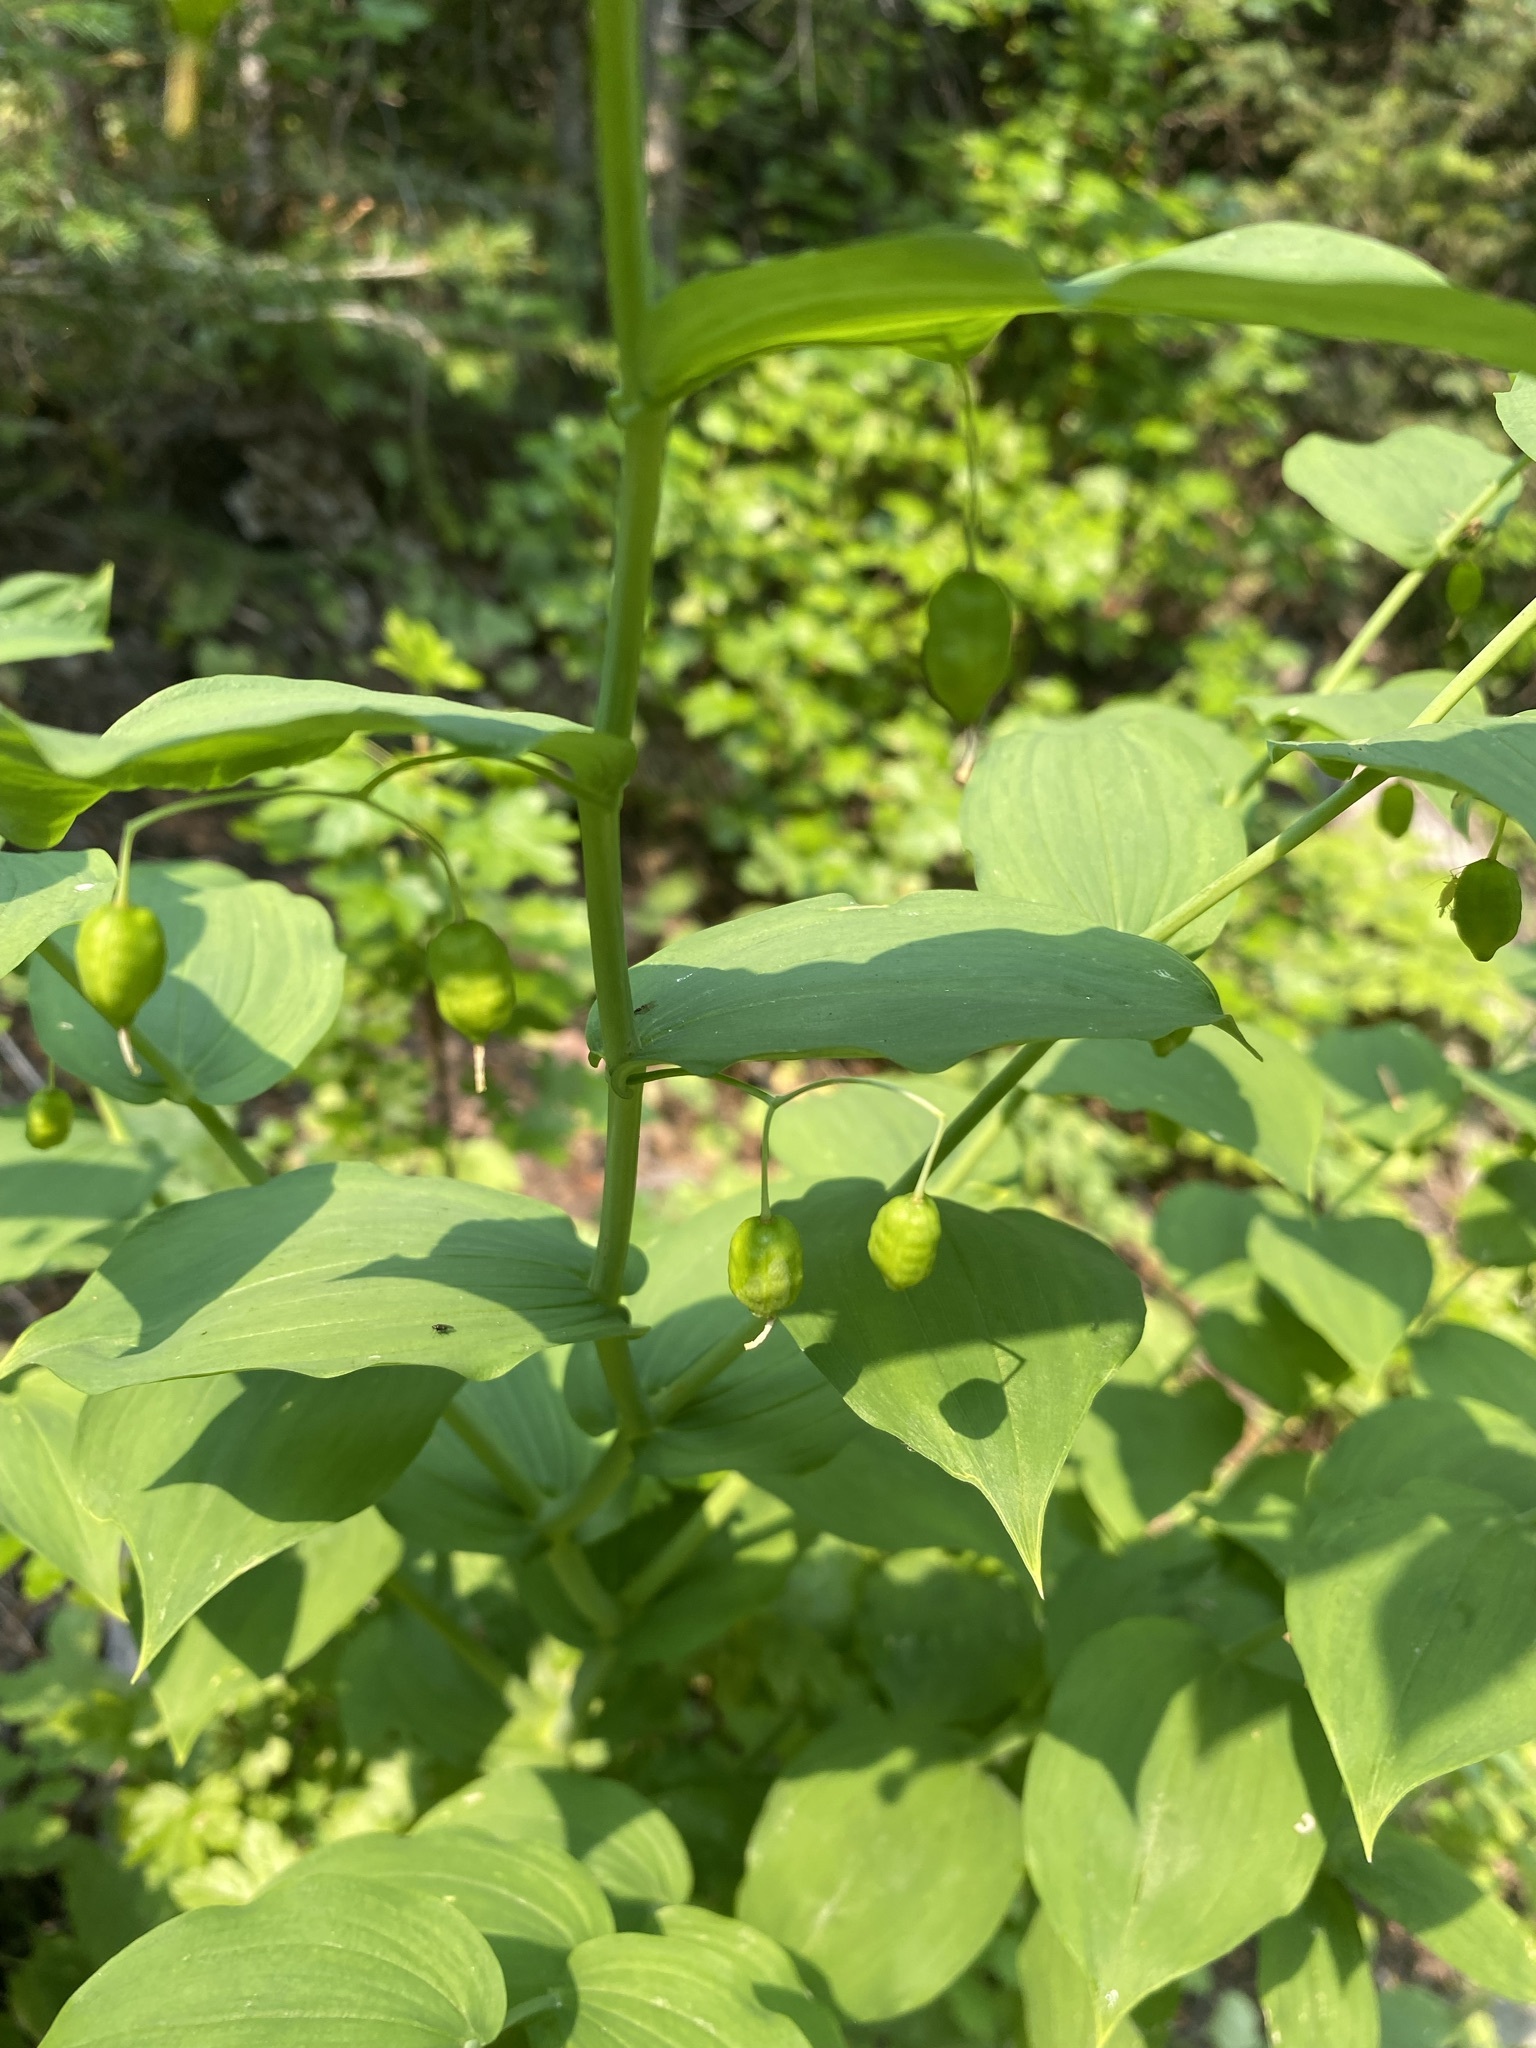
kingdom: Plantae
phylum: Tracheophyta
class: Liliopsida
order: Liliales
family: Liliaceae
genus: Streptopus
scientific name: Streptopus amplexifolius
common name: Clasp twisted stalk
